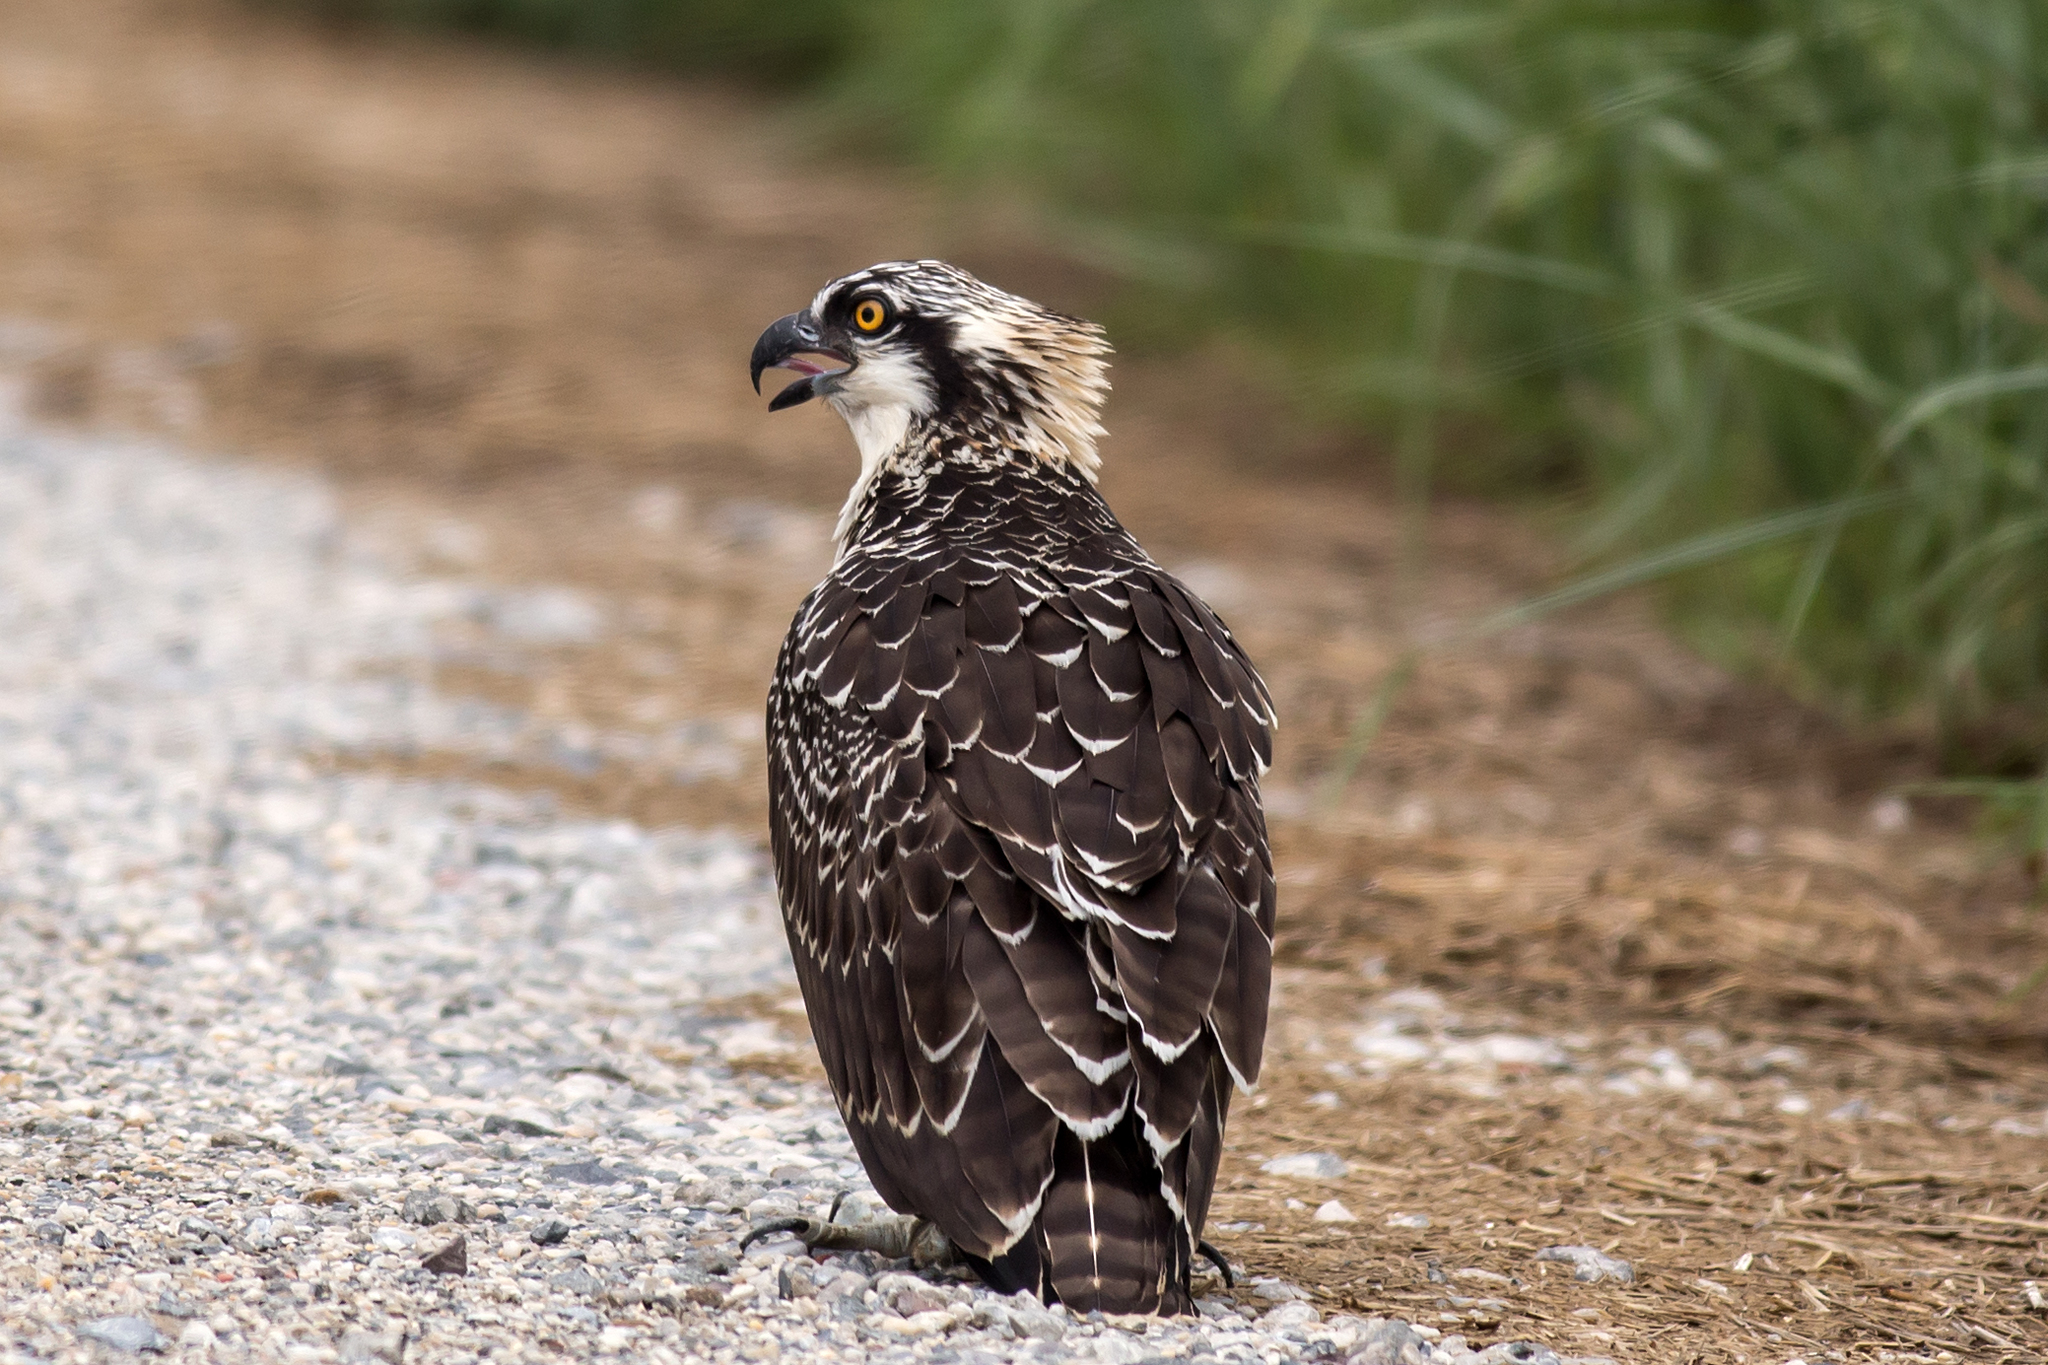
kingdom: Animalia
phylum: Chordata
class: Aves
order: Accipitriformes
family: Pandionidae
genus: Pandion
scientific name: Pandion haliaetus
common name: Osprey
